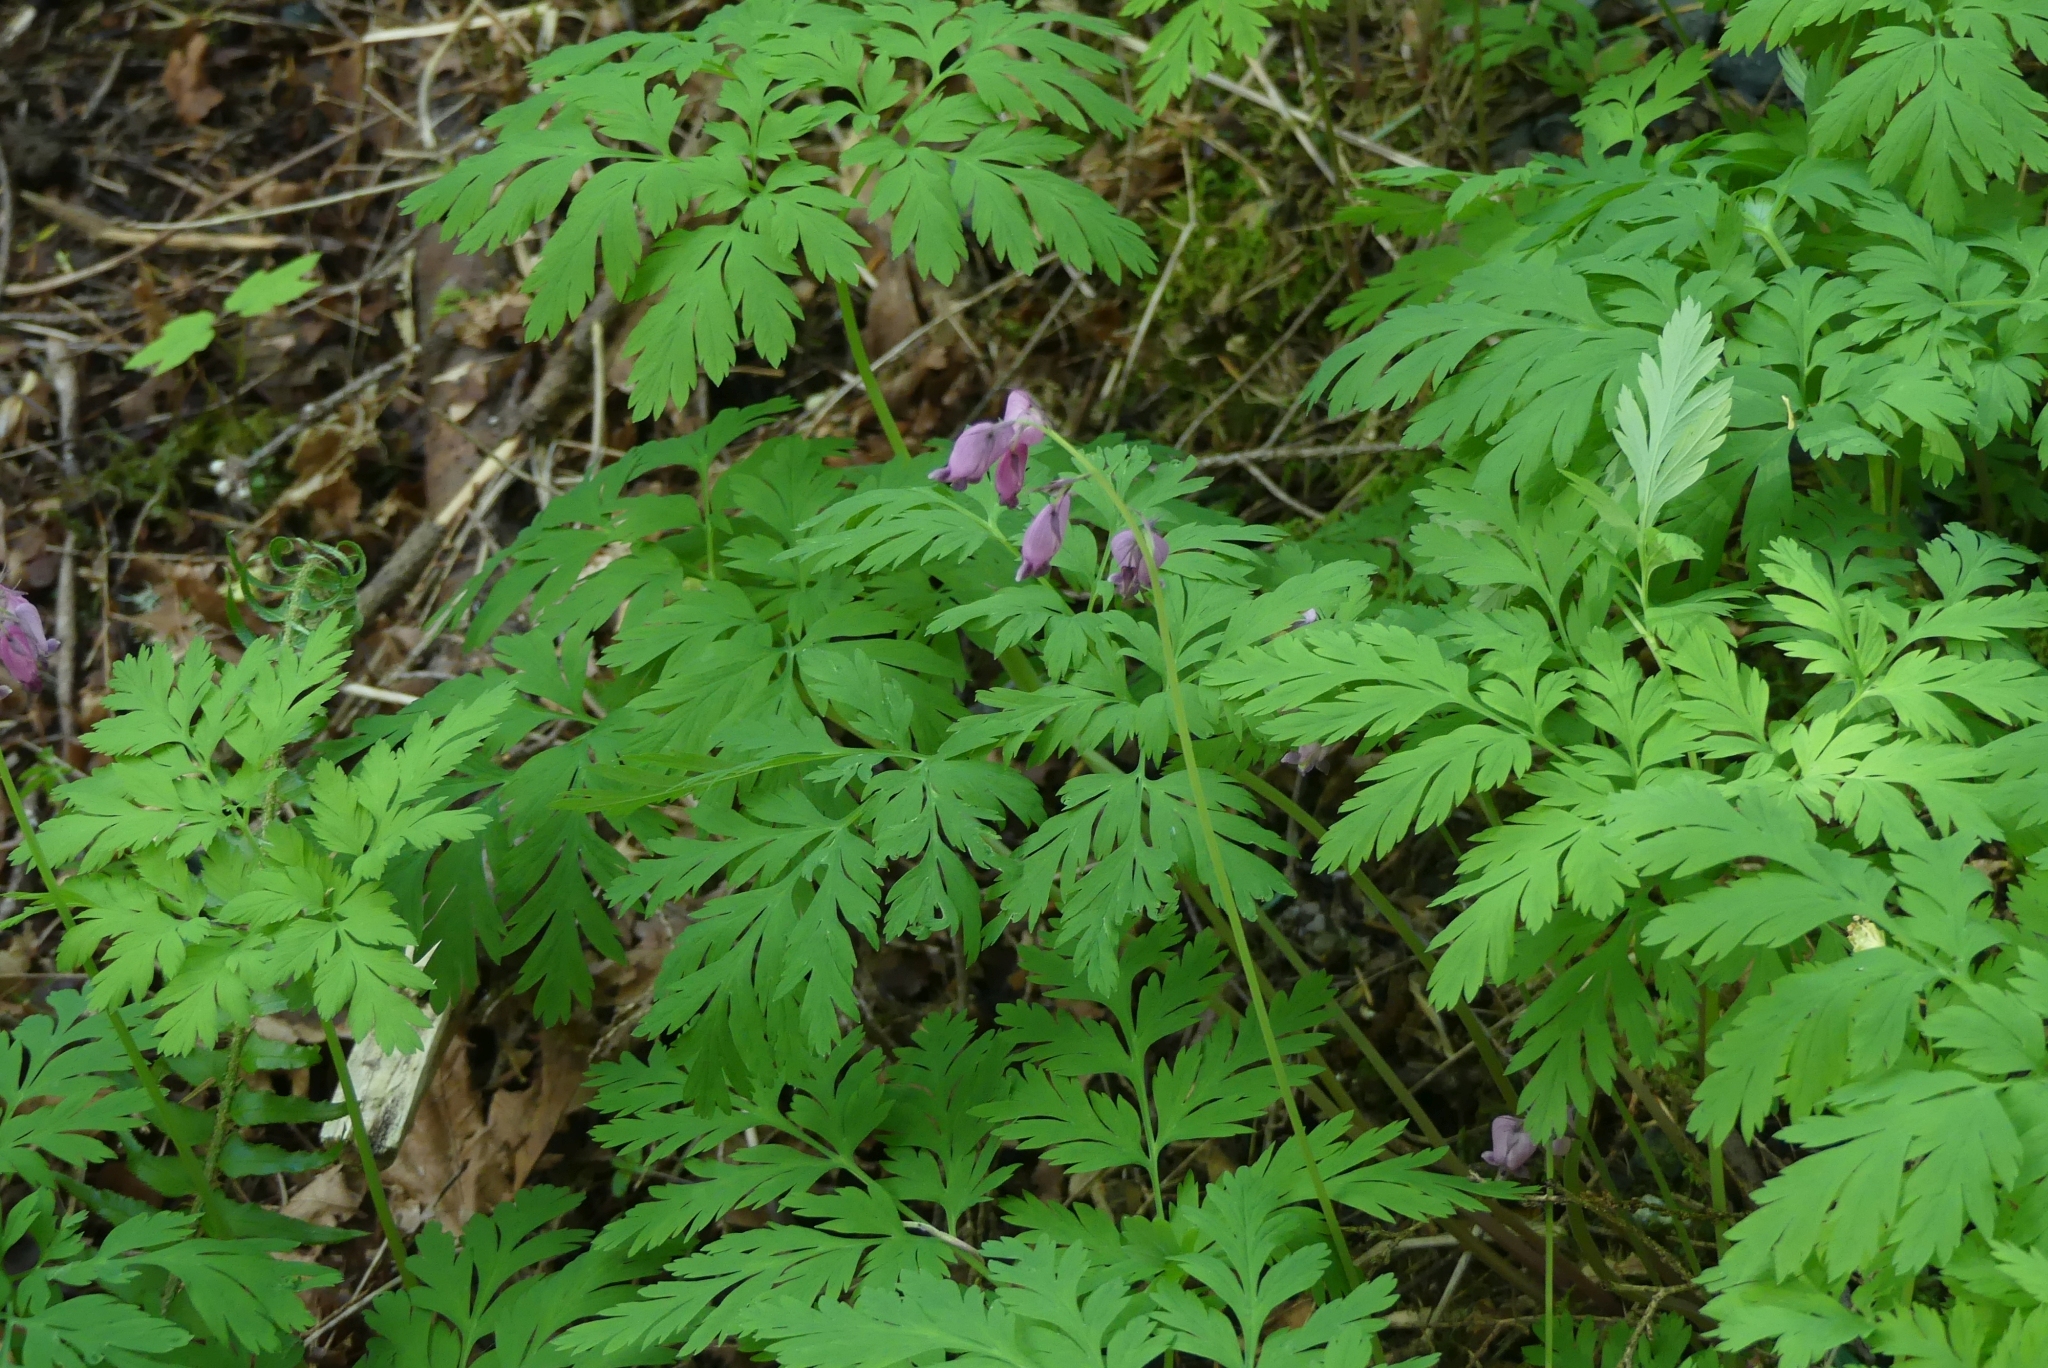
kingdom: Plantae
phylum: Tracheophyta
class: Magnoliopsida
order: Ranunculales
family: Papaveraceae
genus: Dicentra
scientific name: Dicentra formosa
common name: Bleeding-heart
